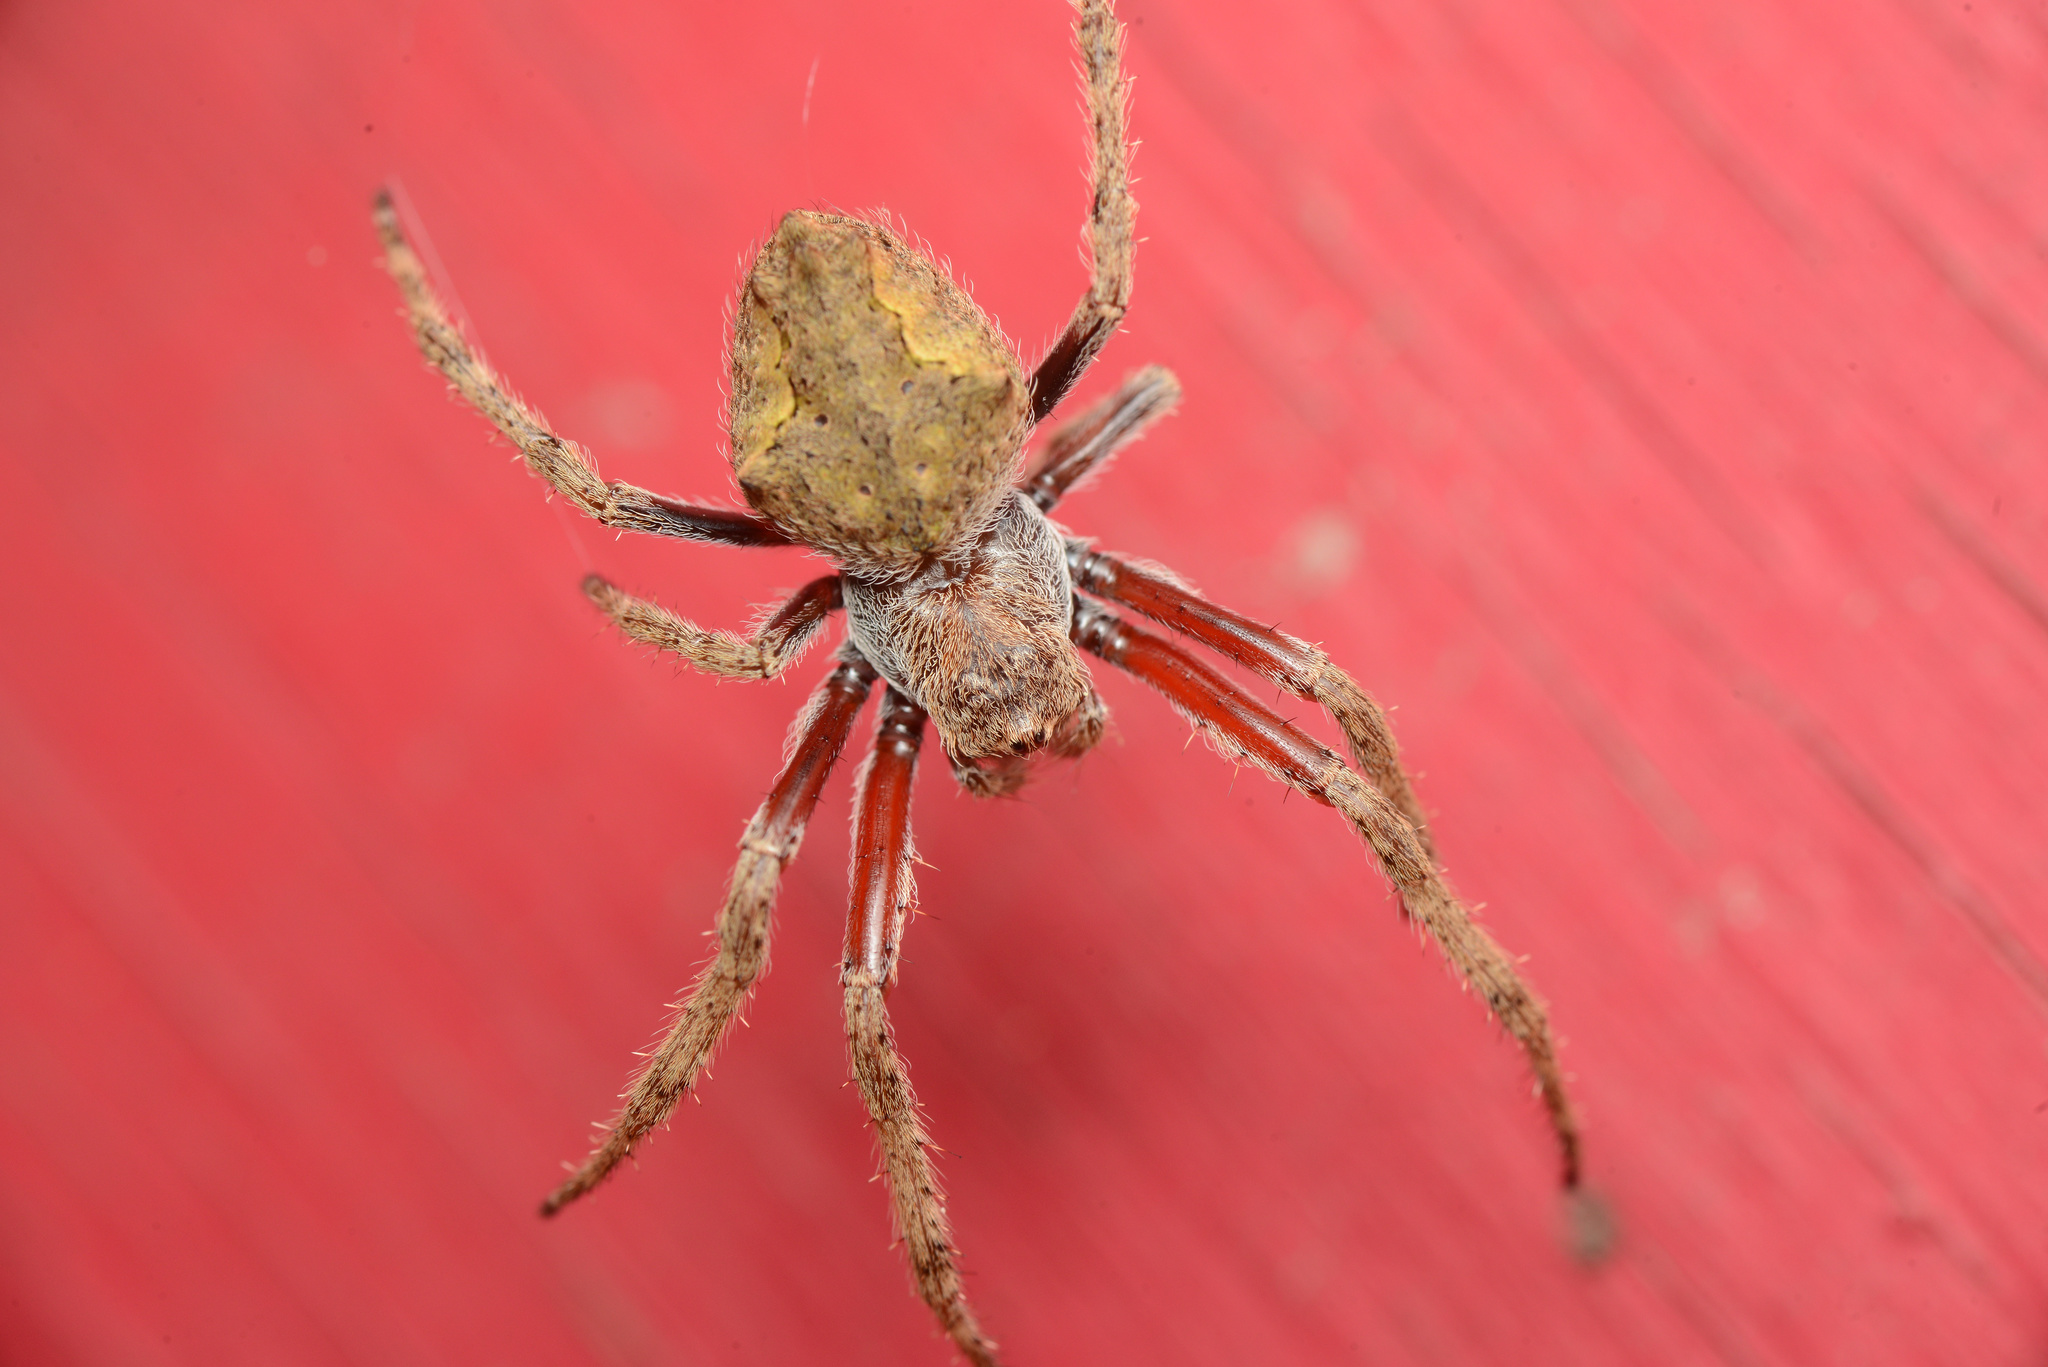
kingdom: Animalia
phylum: Arthropoda
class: Arachnida
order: Araneae
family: Araneidae
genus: Eriophora
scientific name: Eriophora pustulosa
